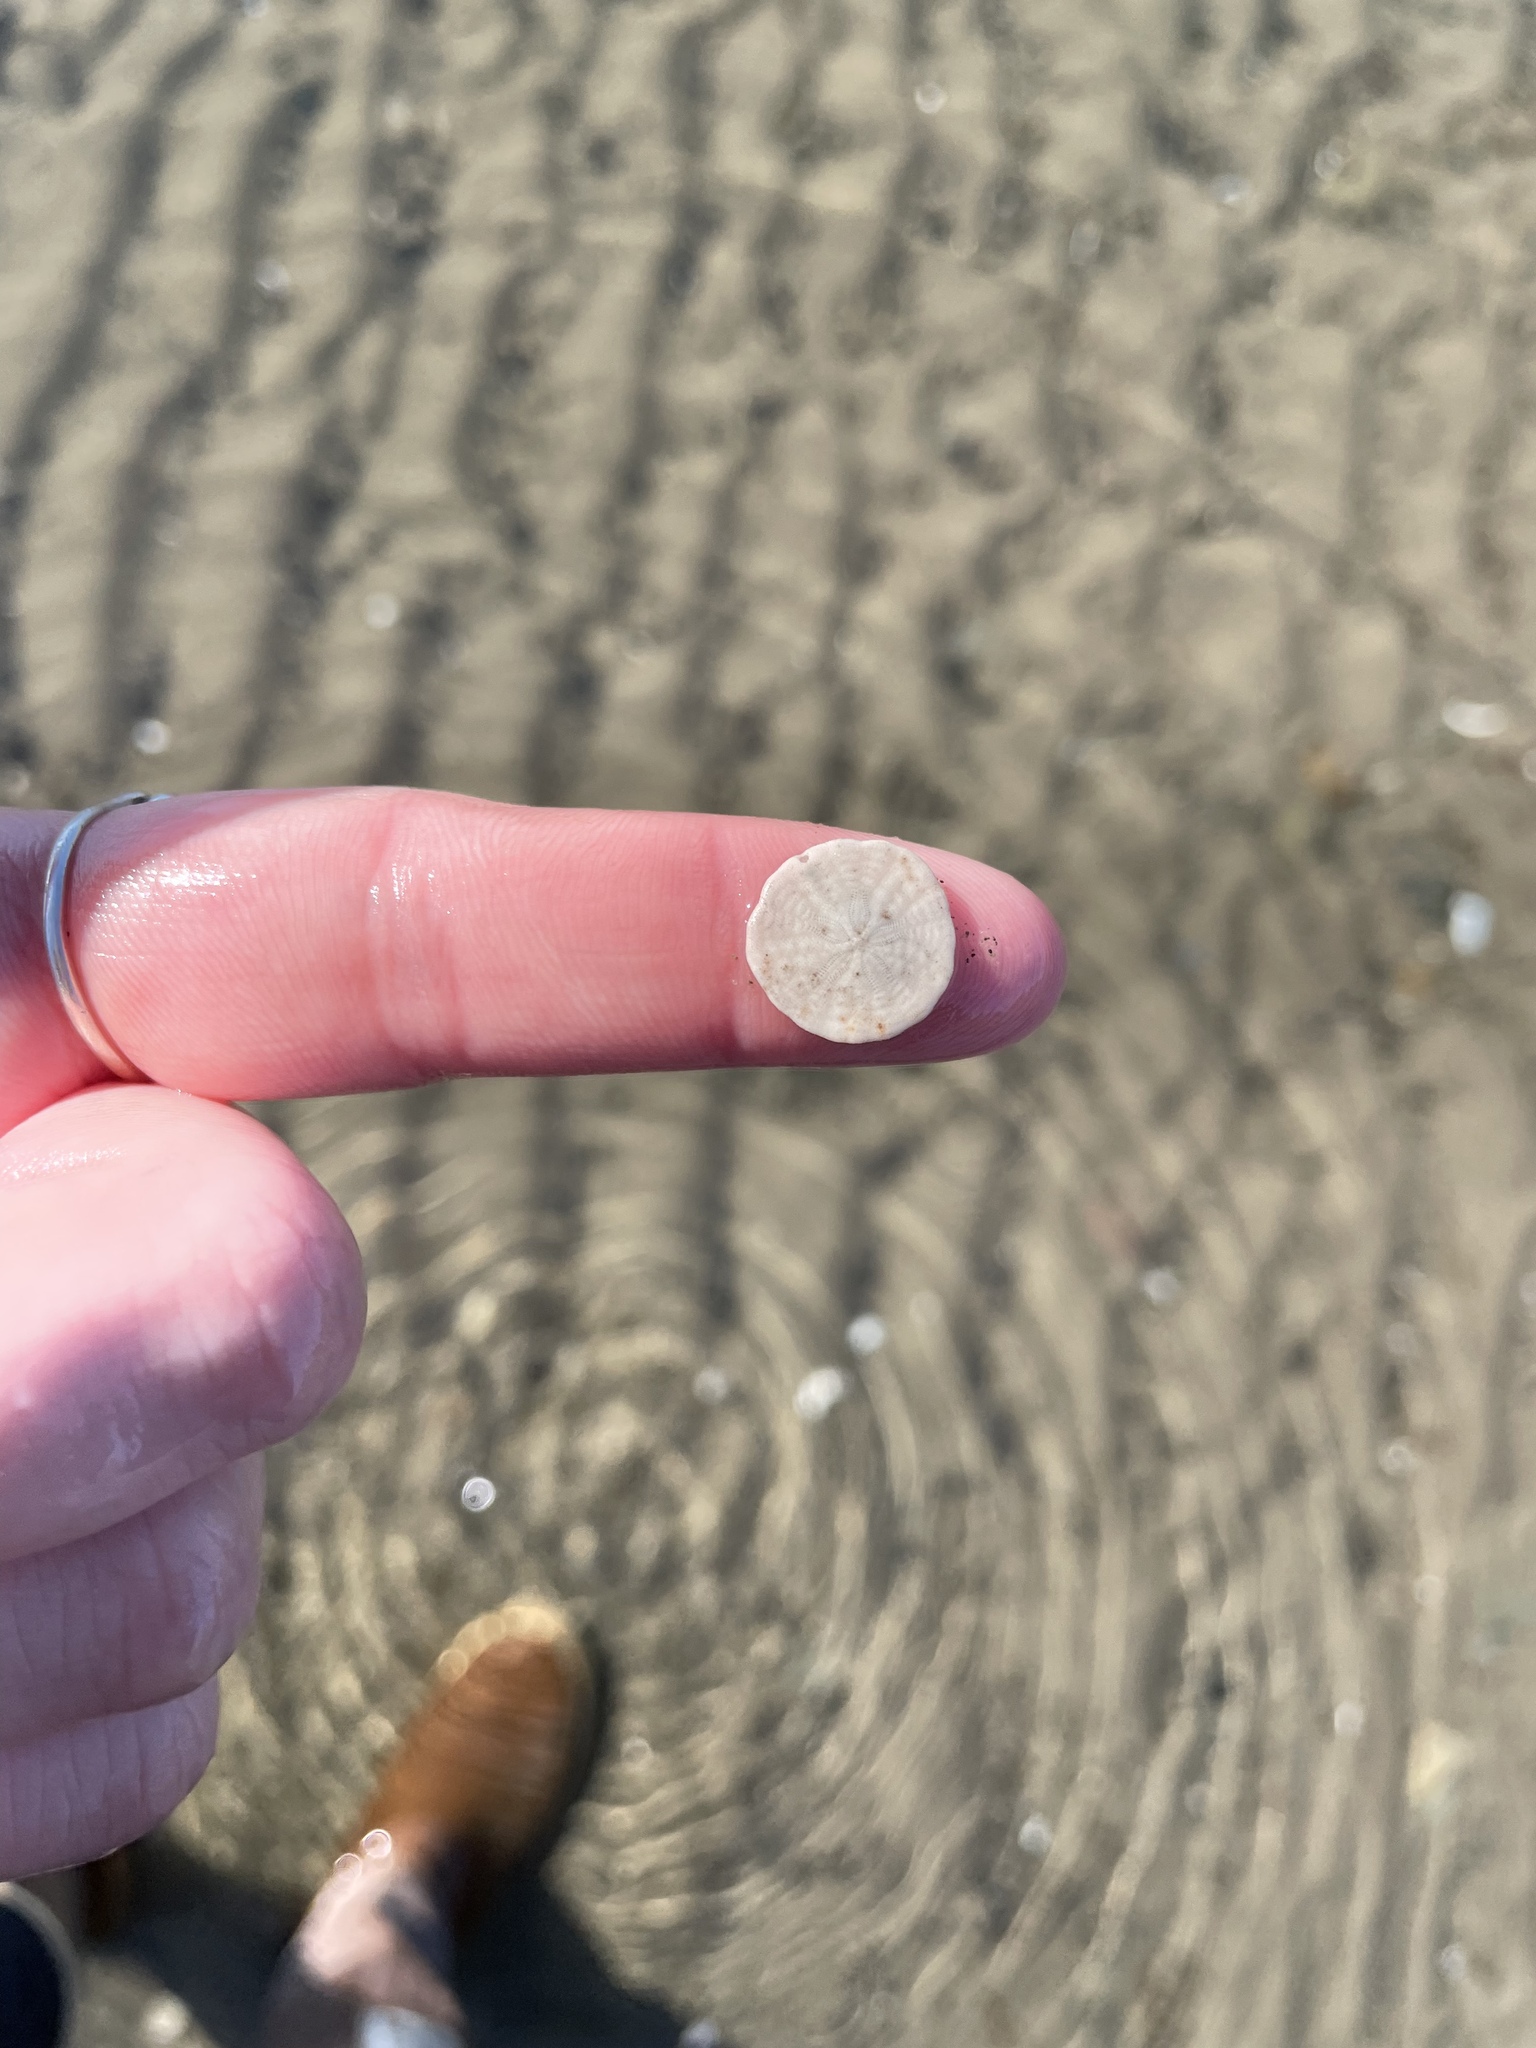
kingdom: Animalia
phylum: Echinodermata
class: Echinoidea
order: Echinolampadacea
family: Echinarachniidae
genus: Echinarachnius
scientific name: Echinarachnius parma
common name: Common sand dollar
